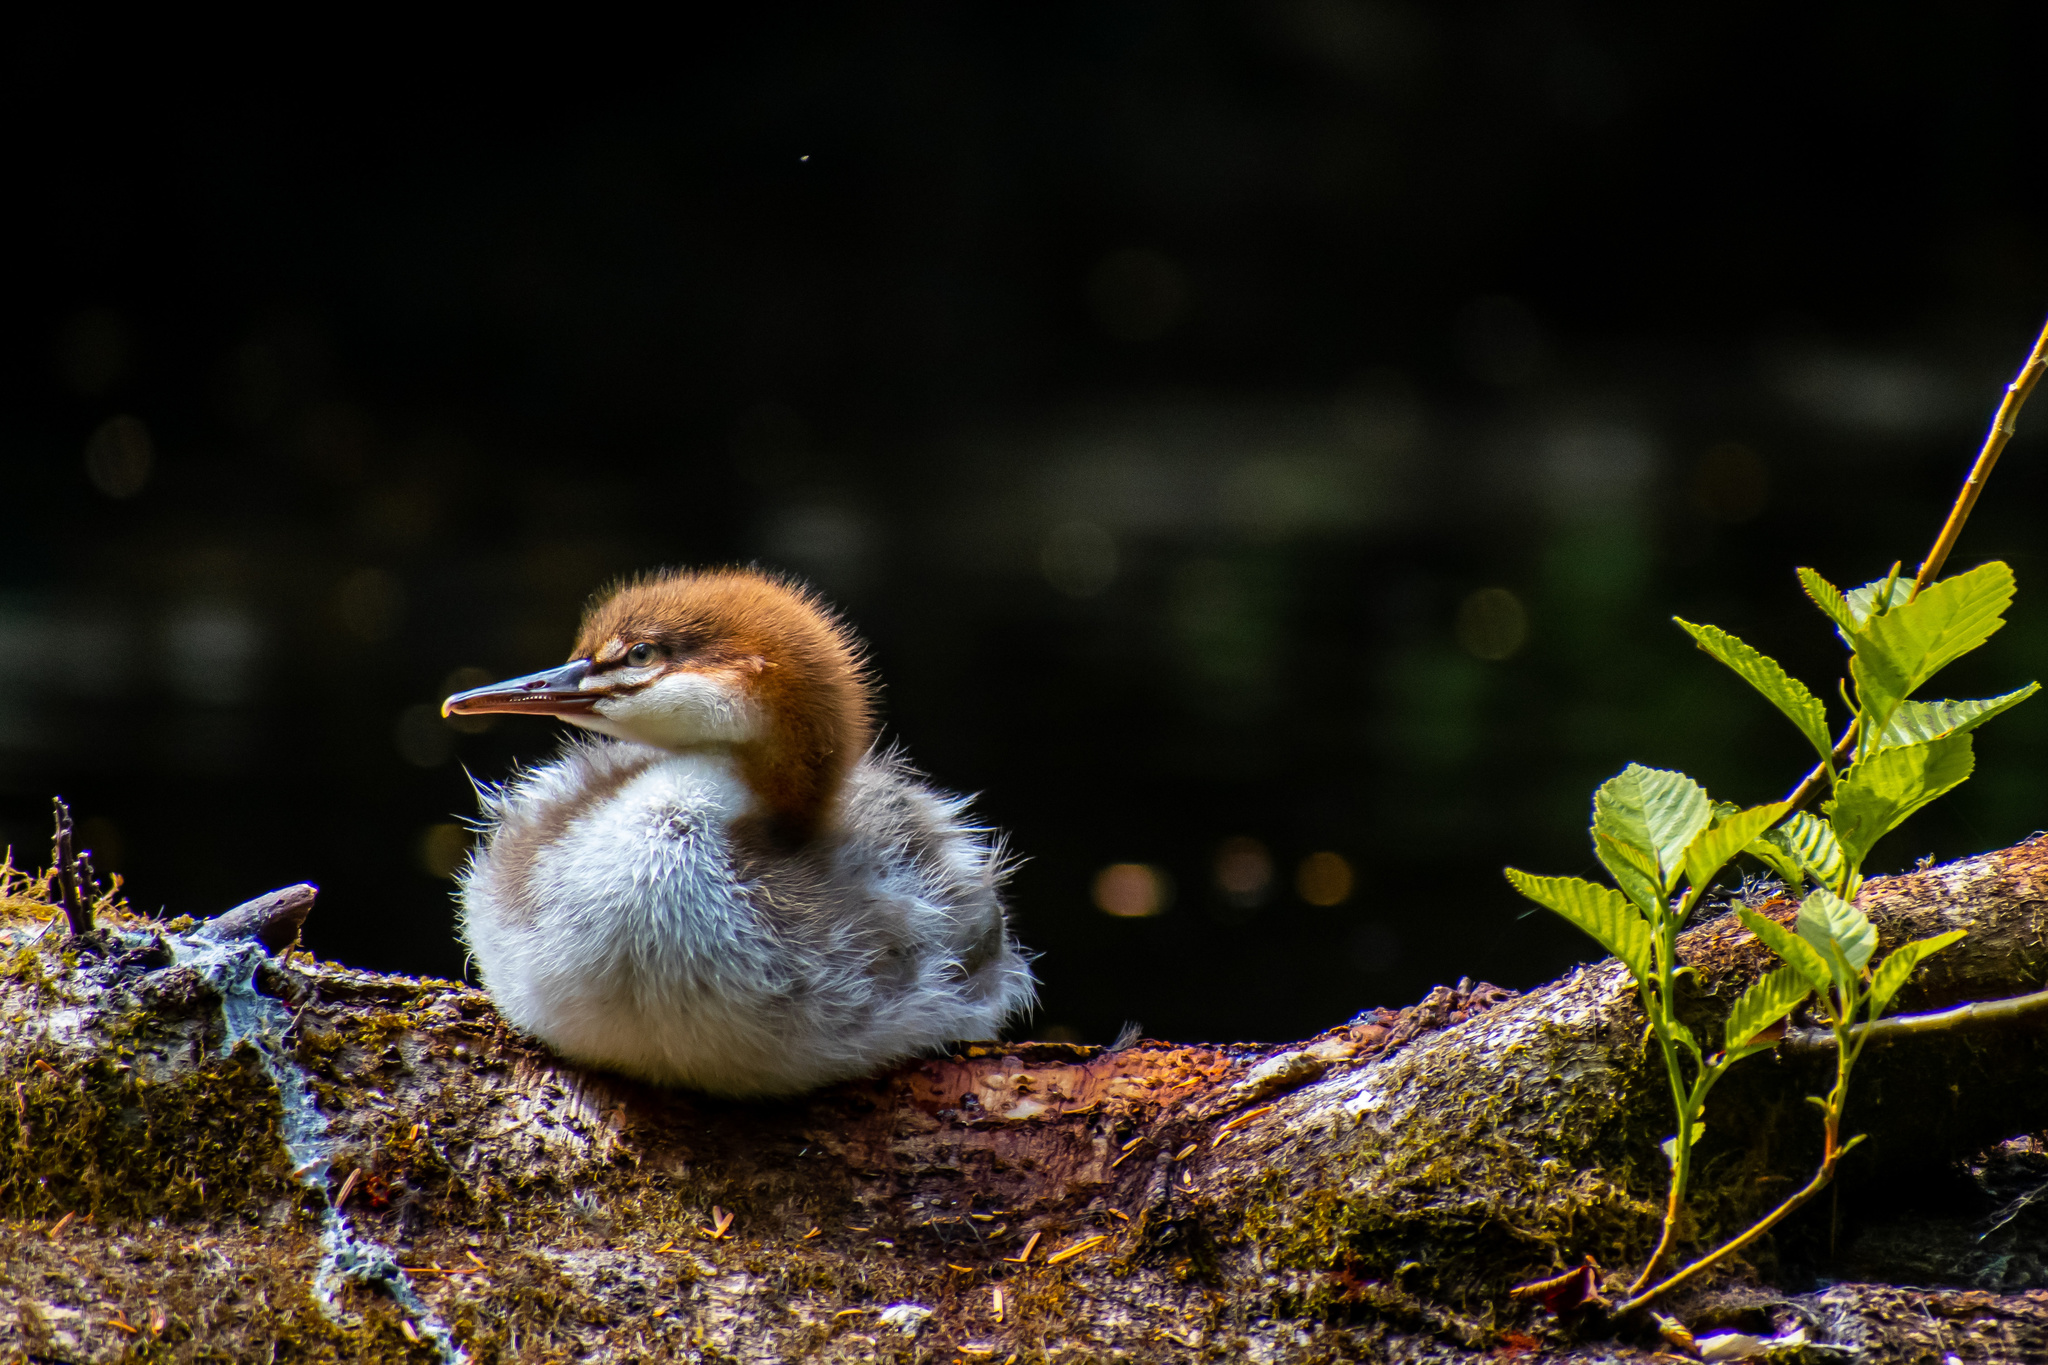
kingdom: Animalia
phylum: Chordata
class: Aves
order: Anseriformes
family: Anatidae
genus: Mergus
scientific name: Mergus merganser
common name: Common merganser
